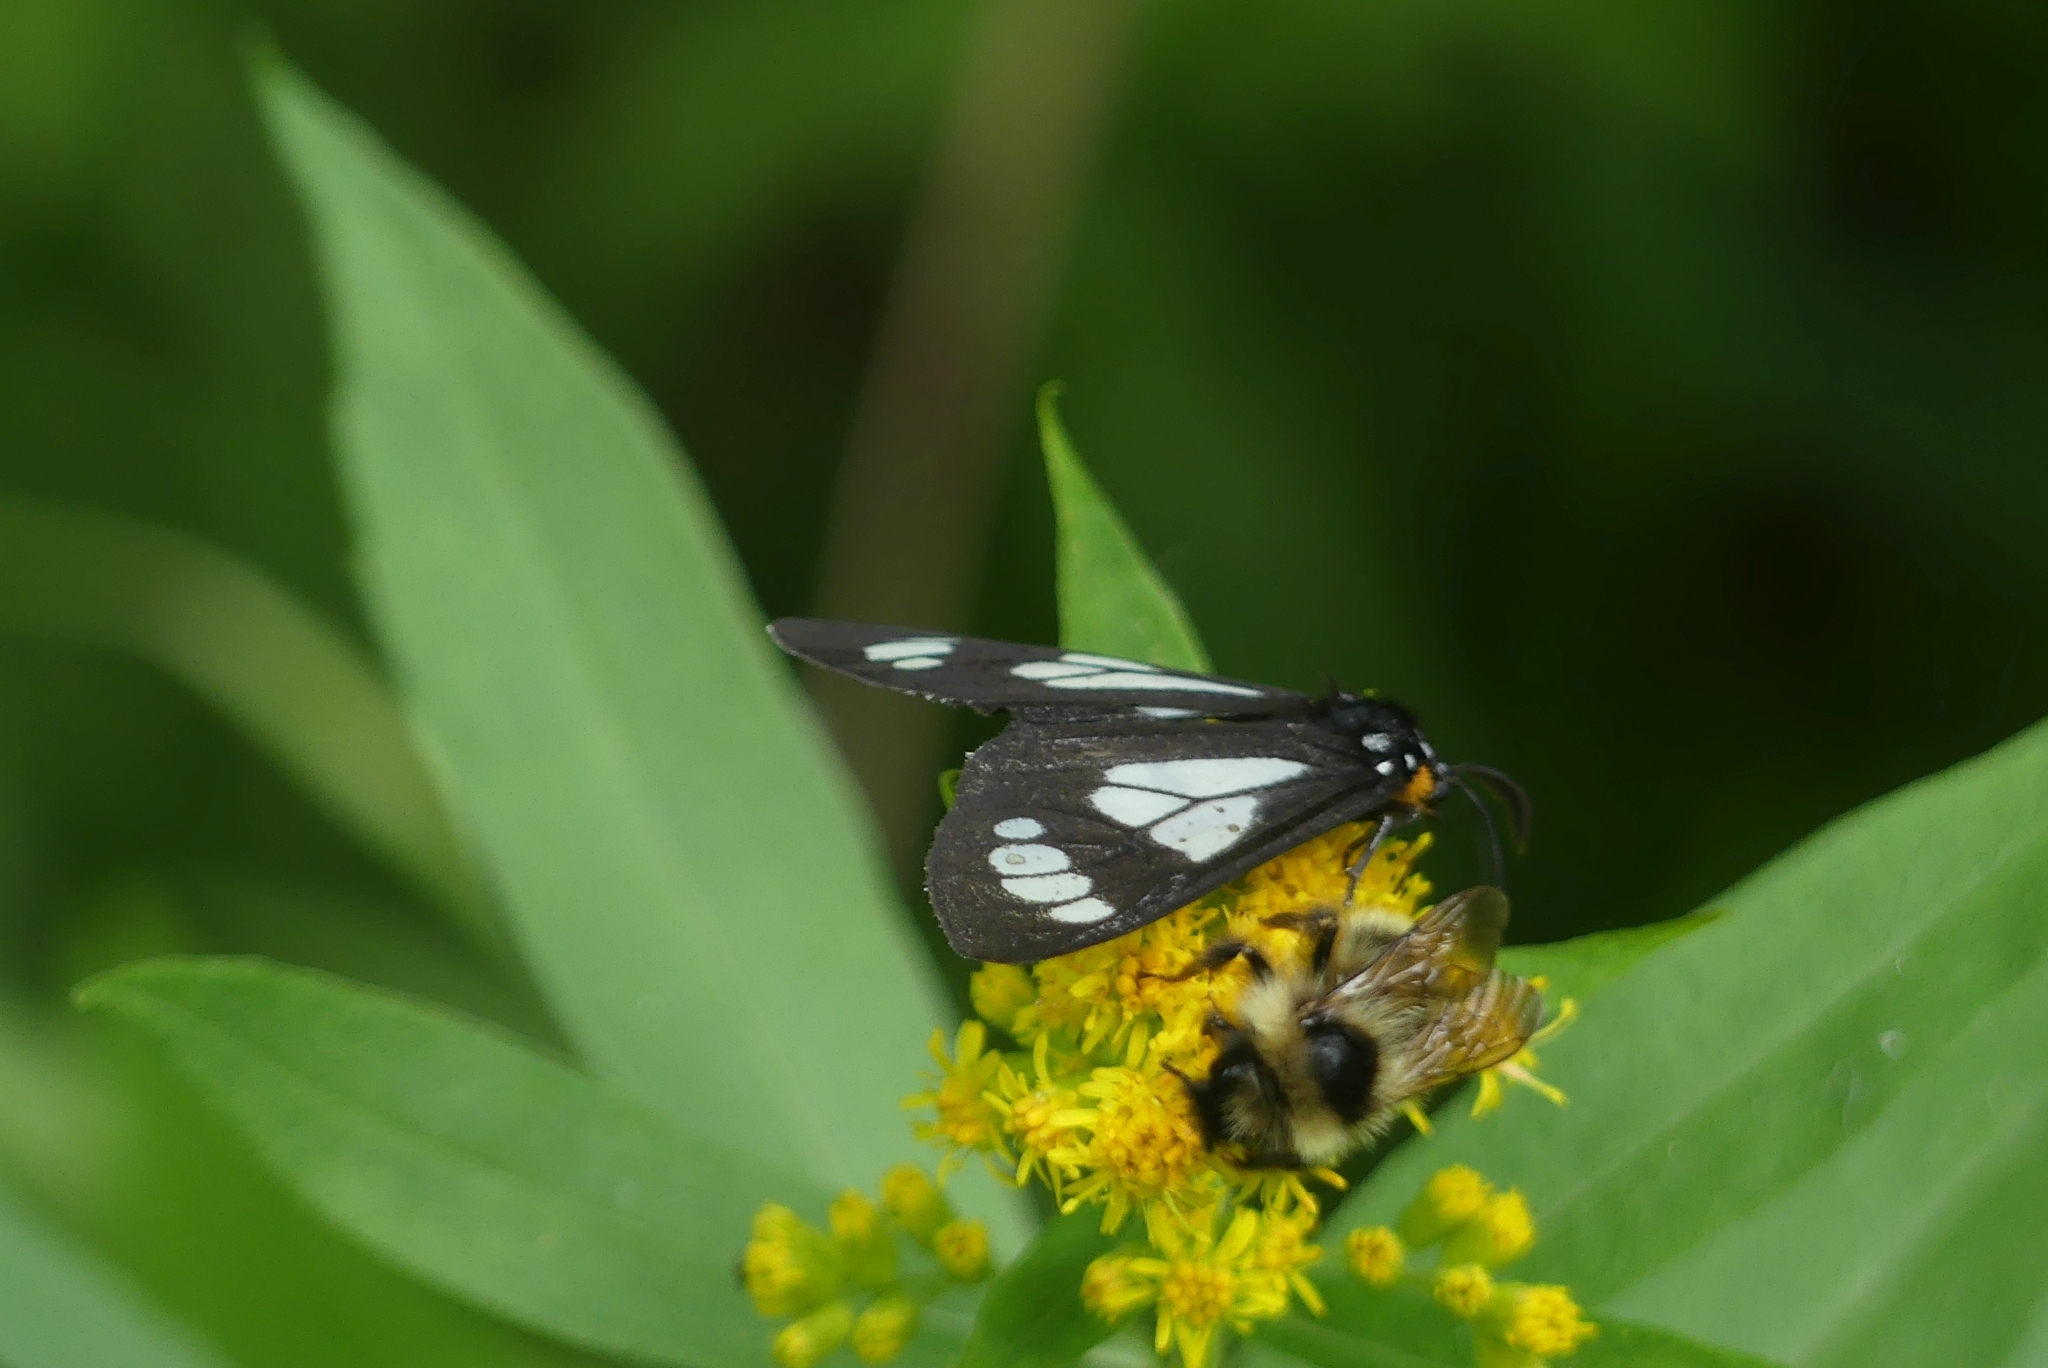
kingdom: Animalia
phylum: Arthropoda
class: Insecta
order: Hymenoptera
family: Apidae
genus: Bombus
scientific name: Bombus flavidus
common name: Fernald cuckoo bumble bee
